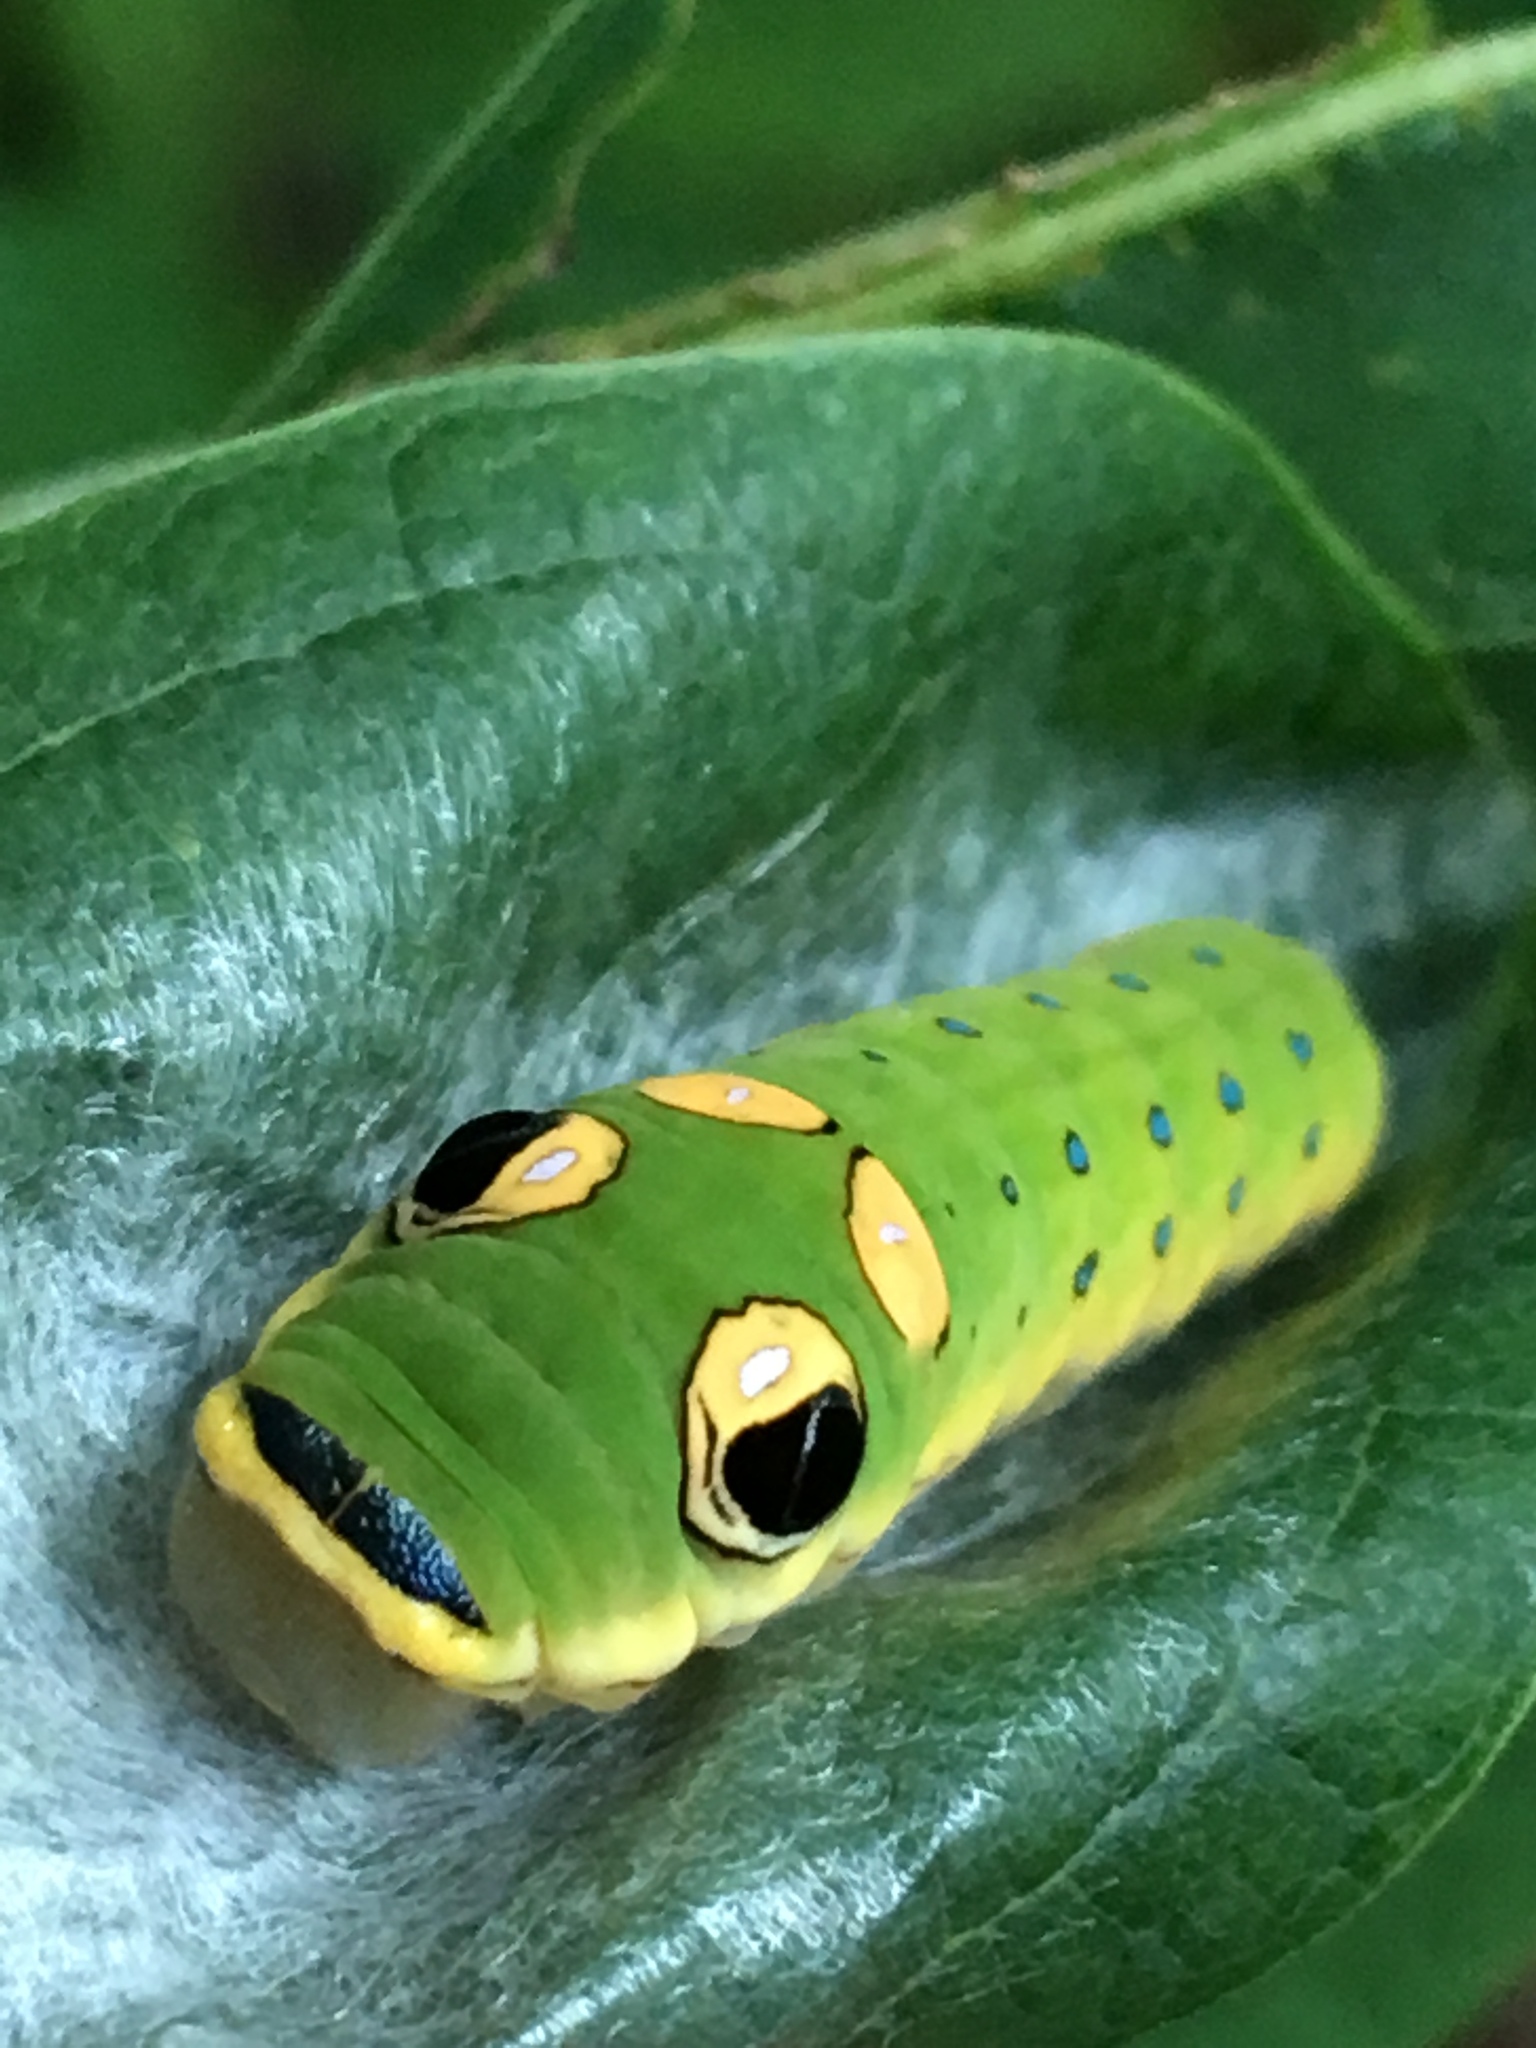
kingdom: Animalia
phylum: Arthropoda
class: Insecta
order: Lepidoptera
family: Papilionidae
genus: Papilio
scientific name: Papilio troilus
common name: Spicebush swallowtail
